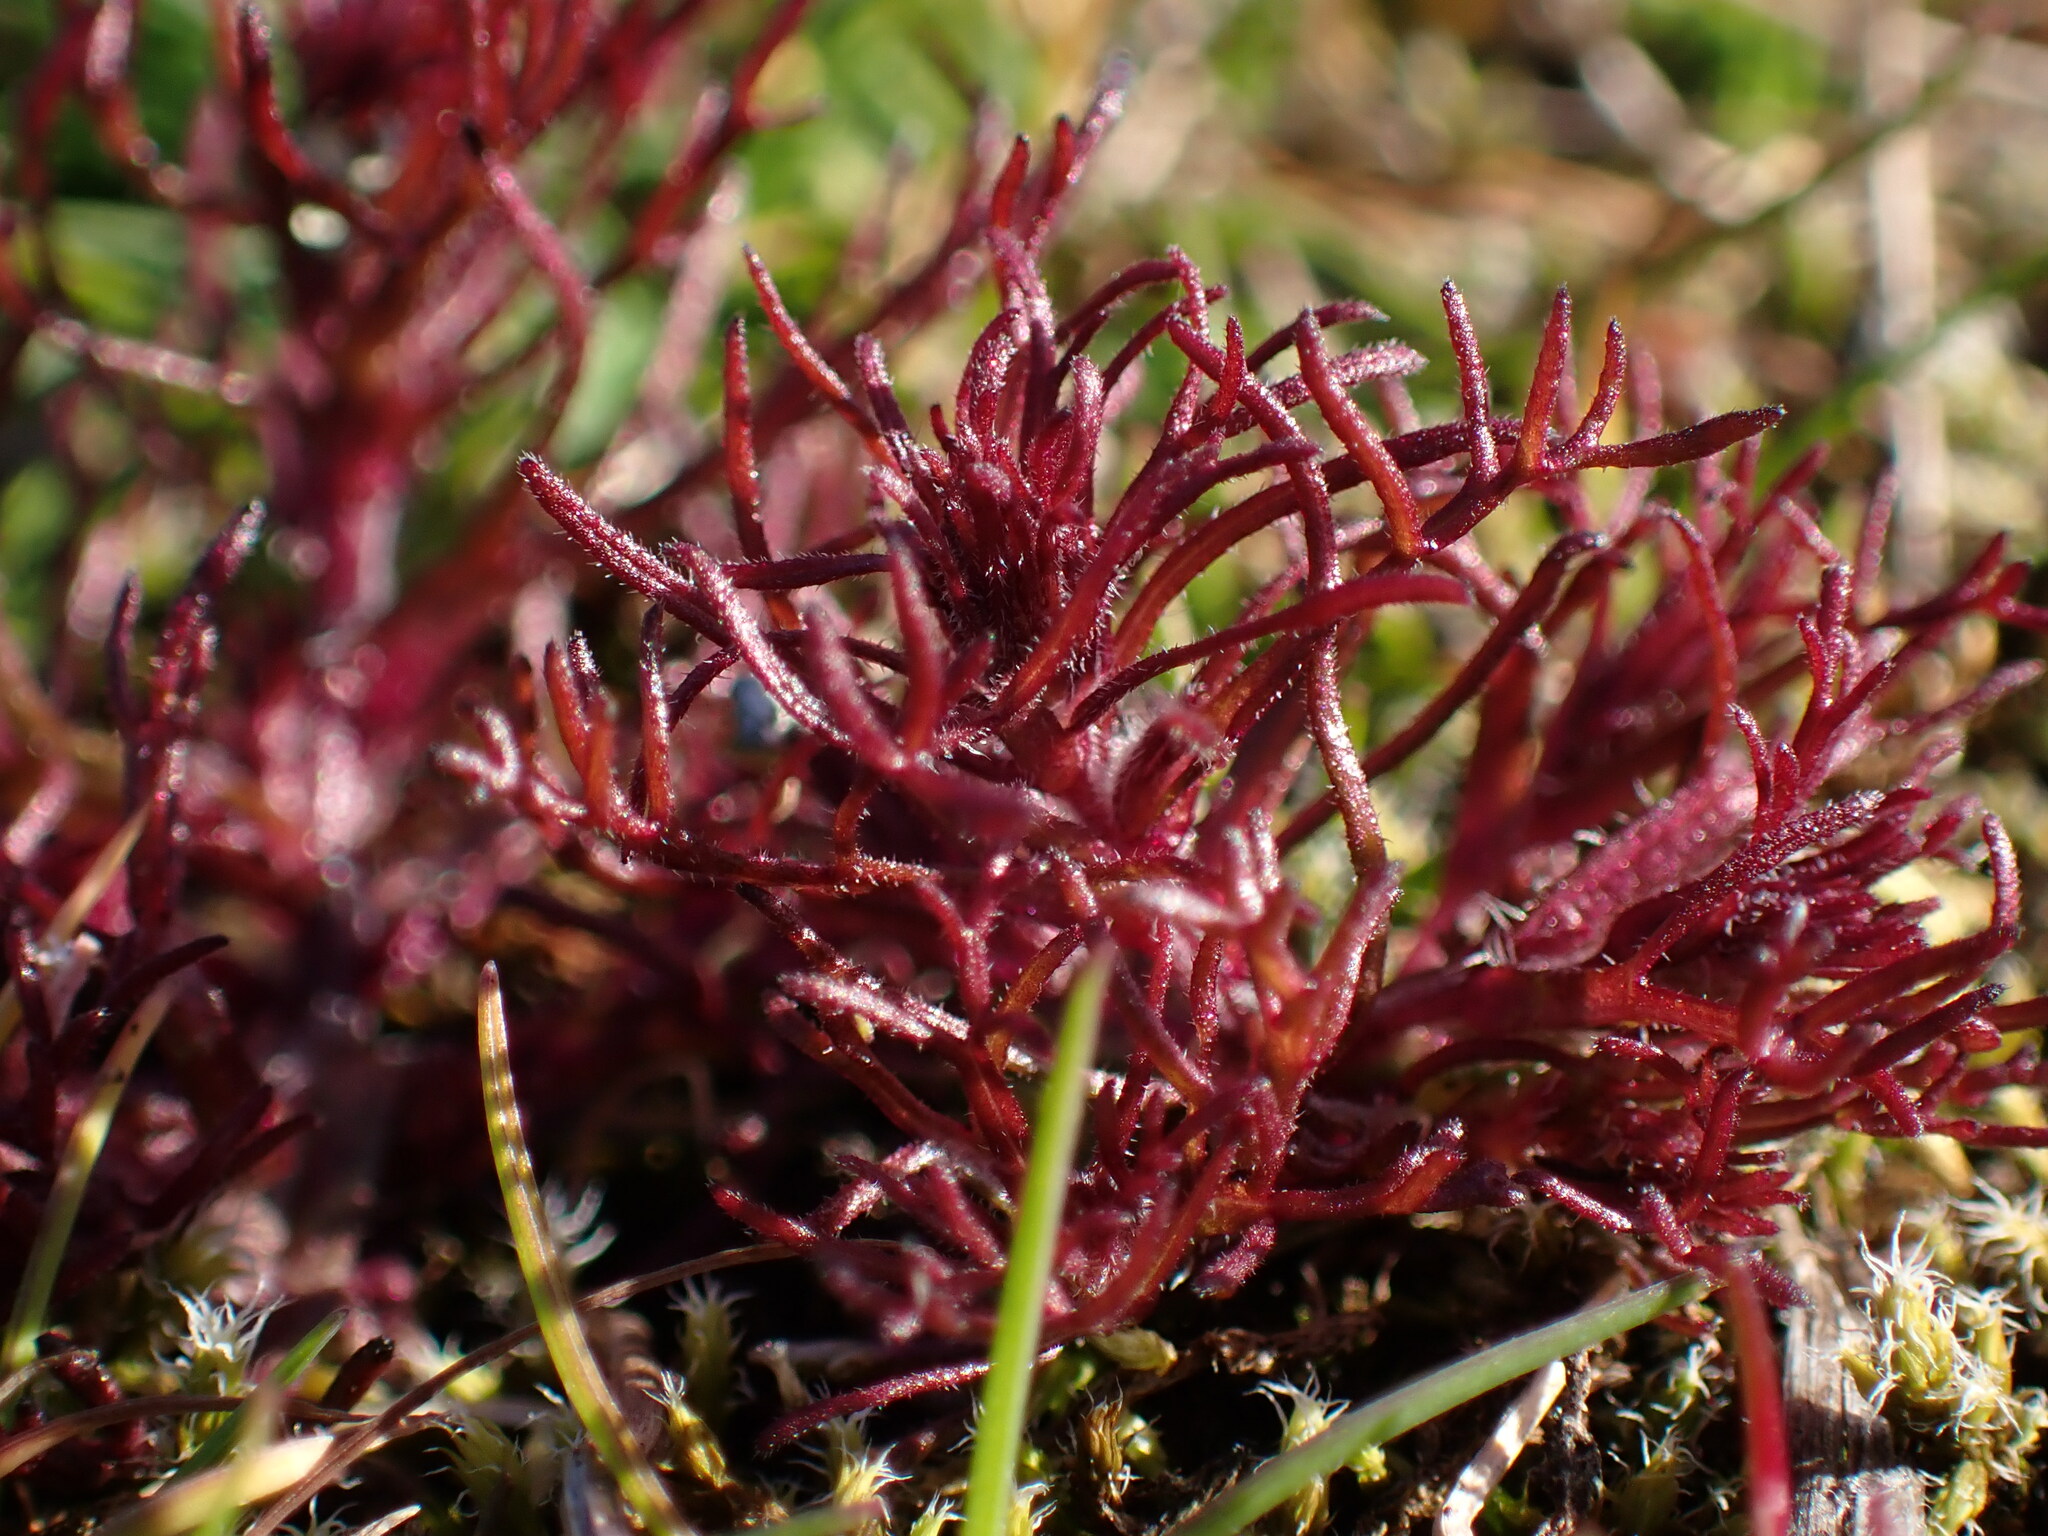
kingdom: Plantae
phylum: Tracheophyta
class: Magnoliopsida
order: Lamiales
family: Orobanchaceae
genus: Triphysaria
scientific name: Triphysaria pusilla
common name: Dwarf false owl-clover
